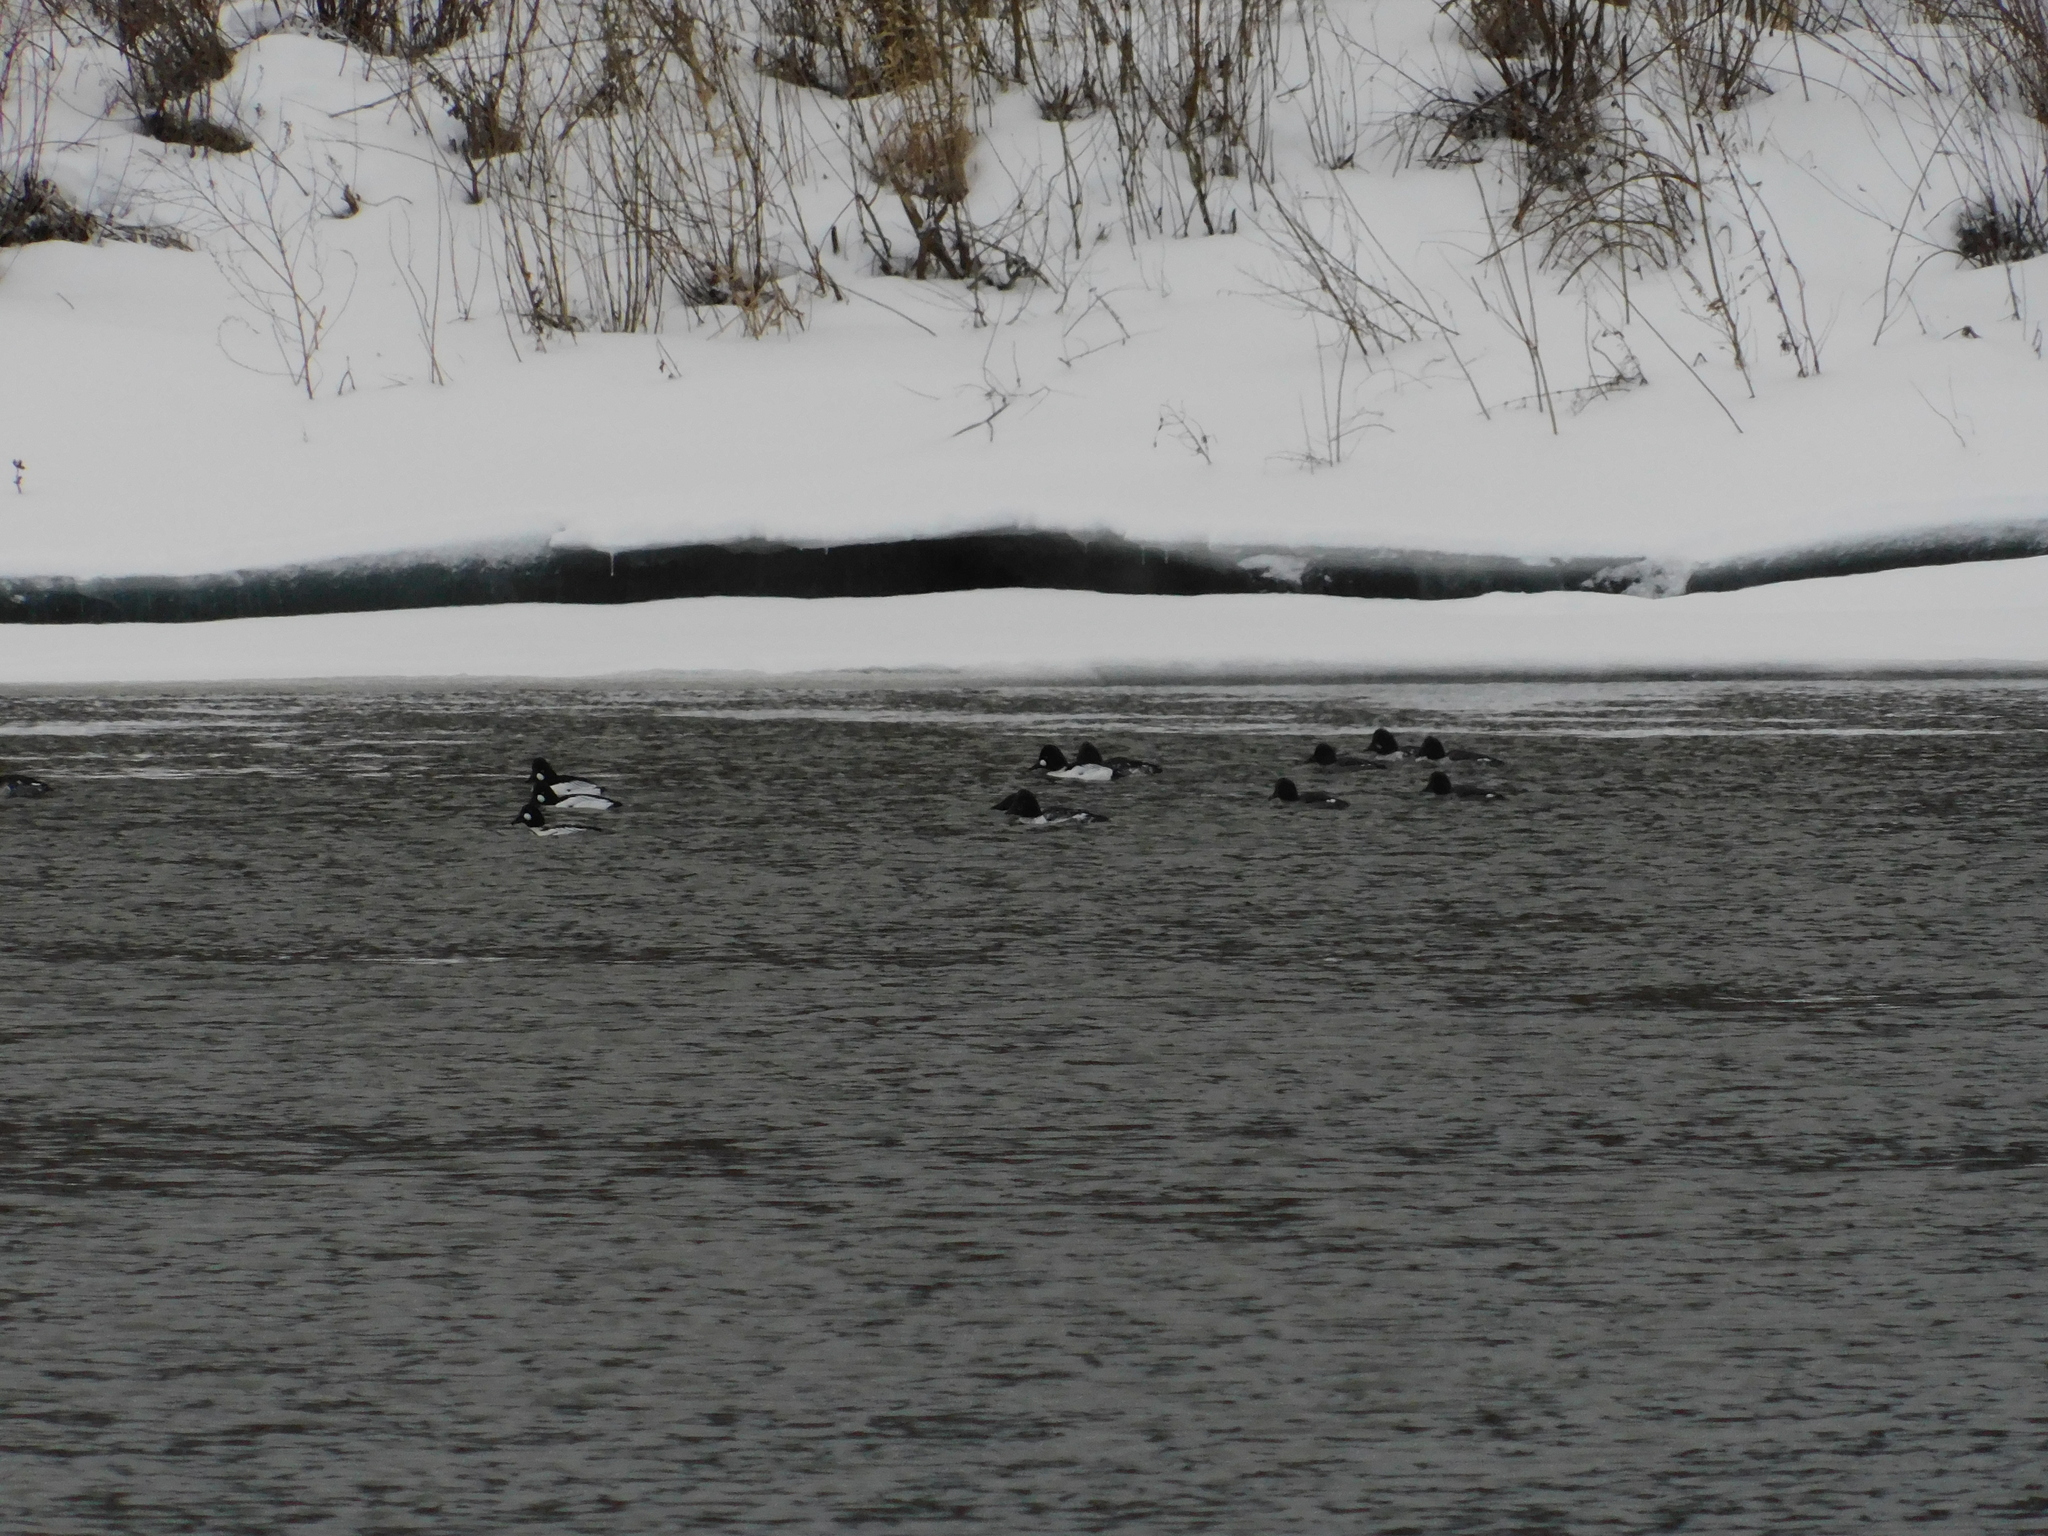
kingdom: Animalia
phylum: Chordata
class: Aves
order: Anseriformes
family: Anatidae
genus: Bucephala
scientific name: Bucephala clangula
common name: Common goldeneye
